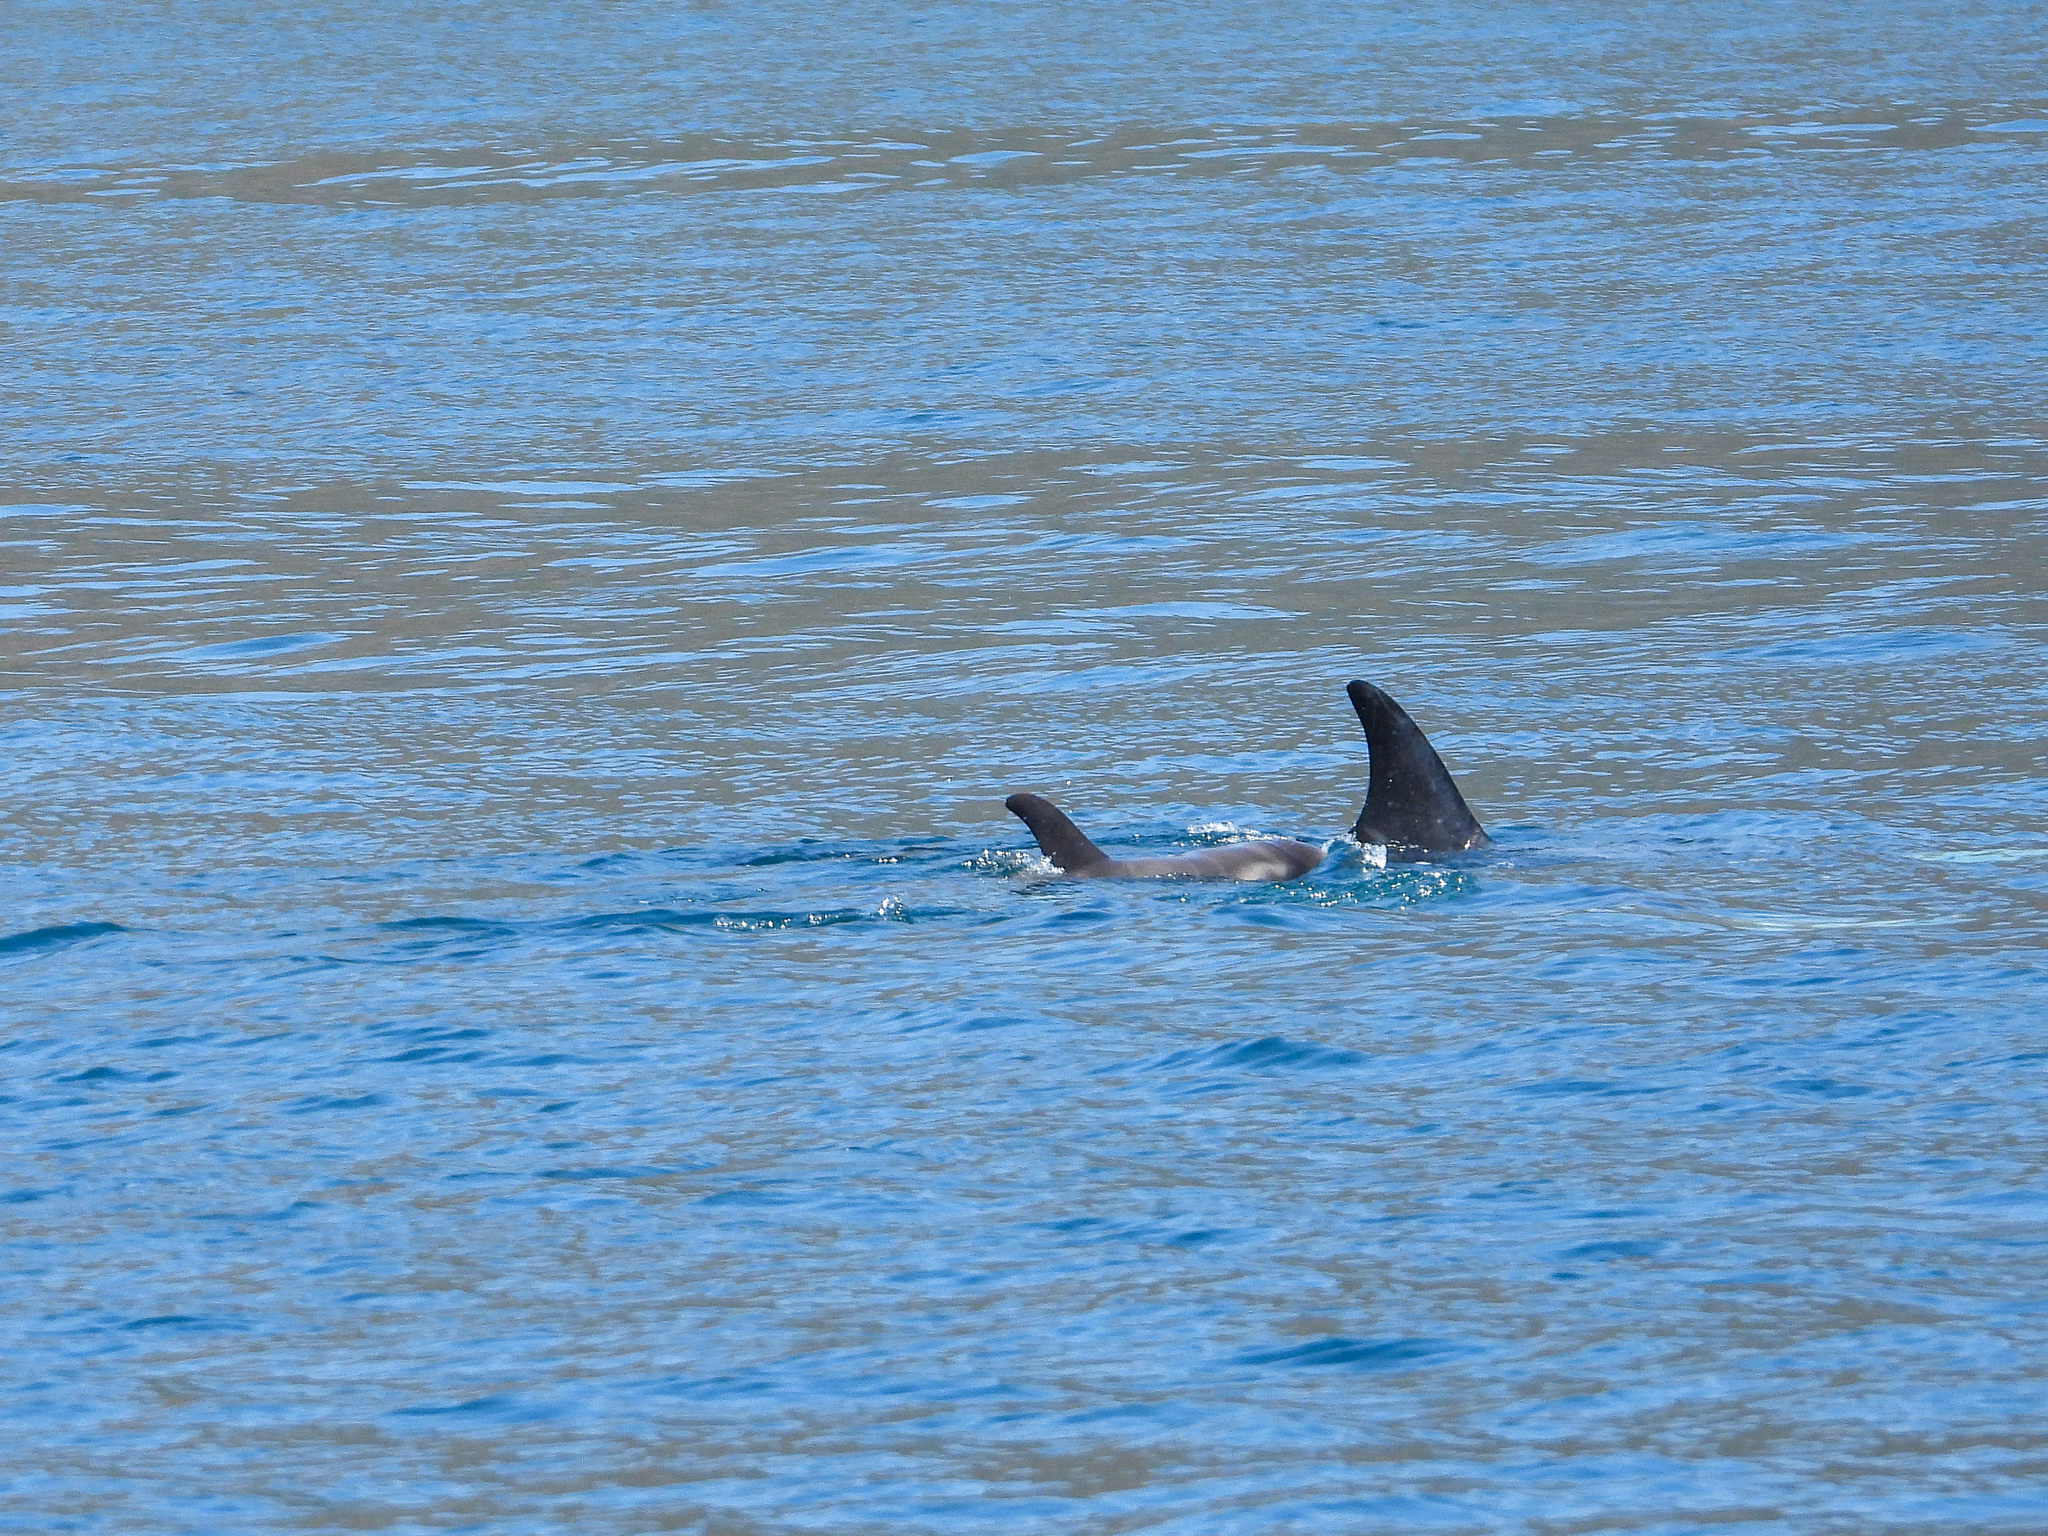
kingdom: Animalia
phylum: Chordata
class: Mammalia
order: Cetacea
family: Delphinidae
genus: Grampus
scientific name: Grampus griseus
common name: Risso's dolphin
